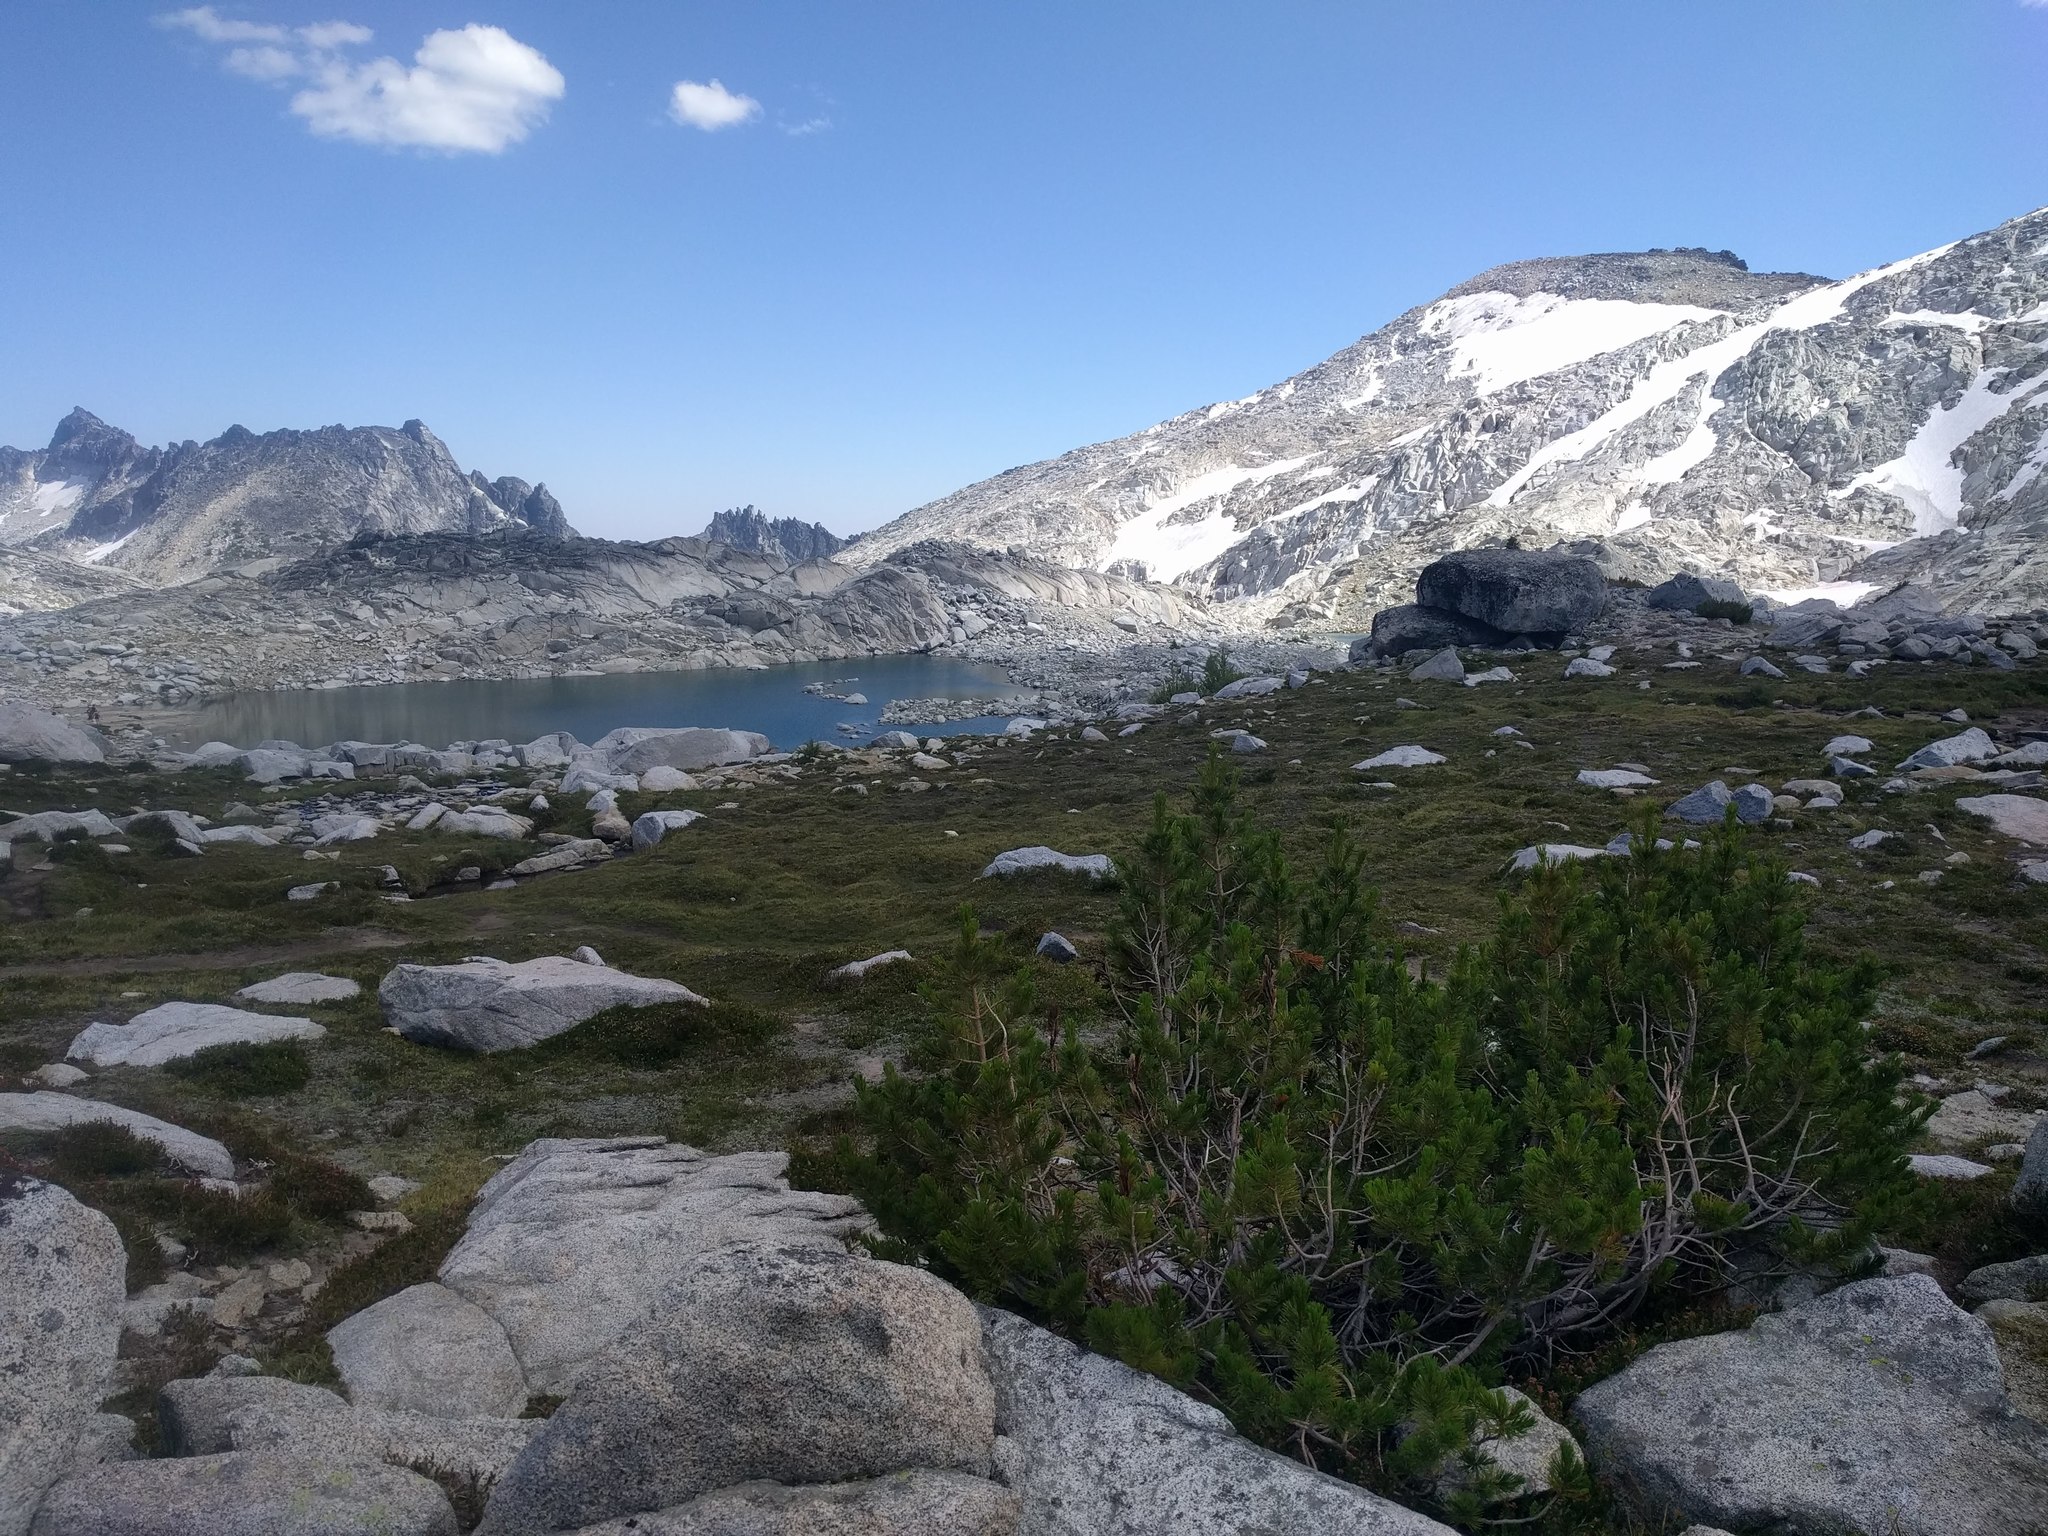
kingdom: Plantae
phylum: Tracheophyta
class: Pinopsida
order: Pinales
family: Pinaceae
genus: Pinus
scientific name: Pinus albicaulis
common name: Whitebark pine
